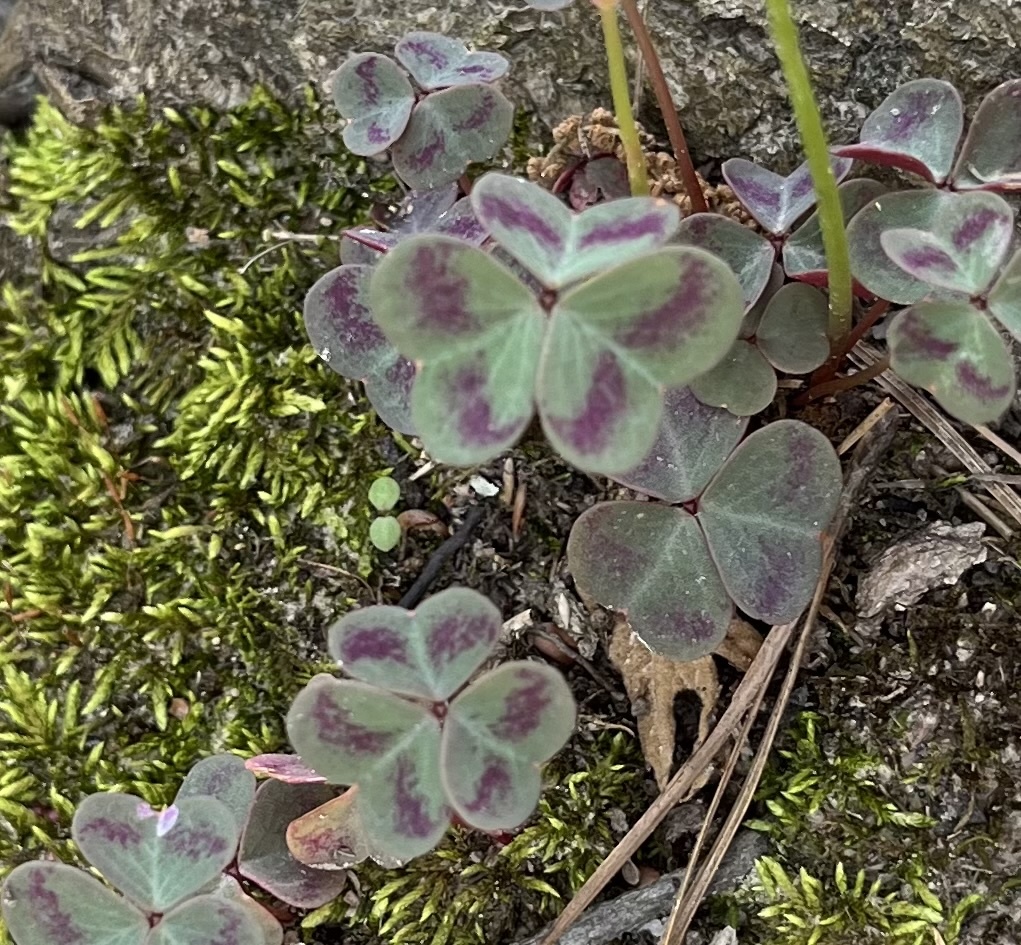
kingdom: Plantae
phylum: Tracheophyta
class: Magnoliopsida
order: Oxalidales
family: Oxalidaceae
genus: Oxalis
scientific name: Oxalis violacea
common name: Violet wood-sorrel
